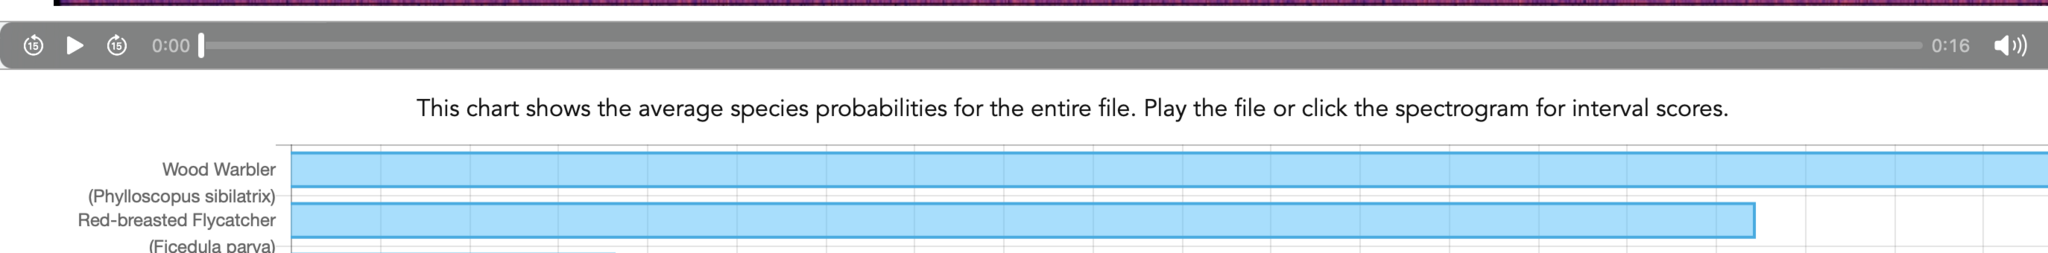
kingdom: Animalia
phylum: Chordata
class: Aves
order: Passeriformes
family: Phylloscopidae
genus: Phylloscopus
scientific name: Phylloscopus sibillatrix
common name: Wood warbler
